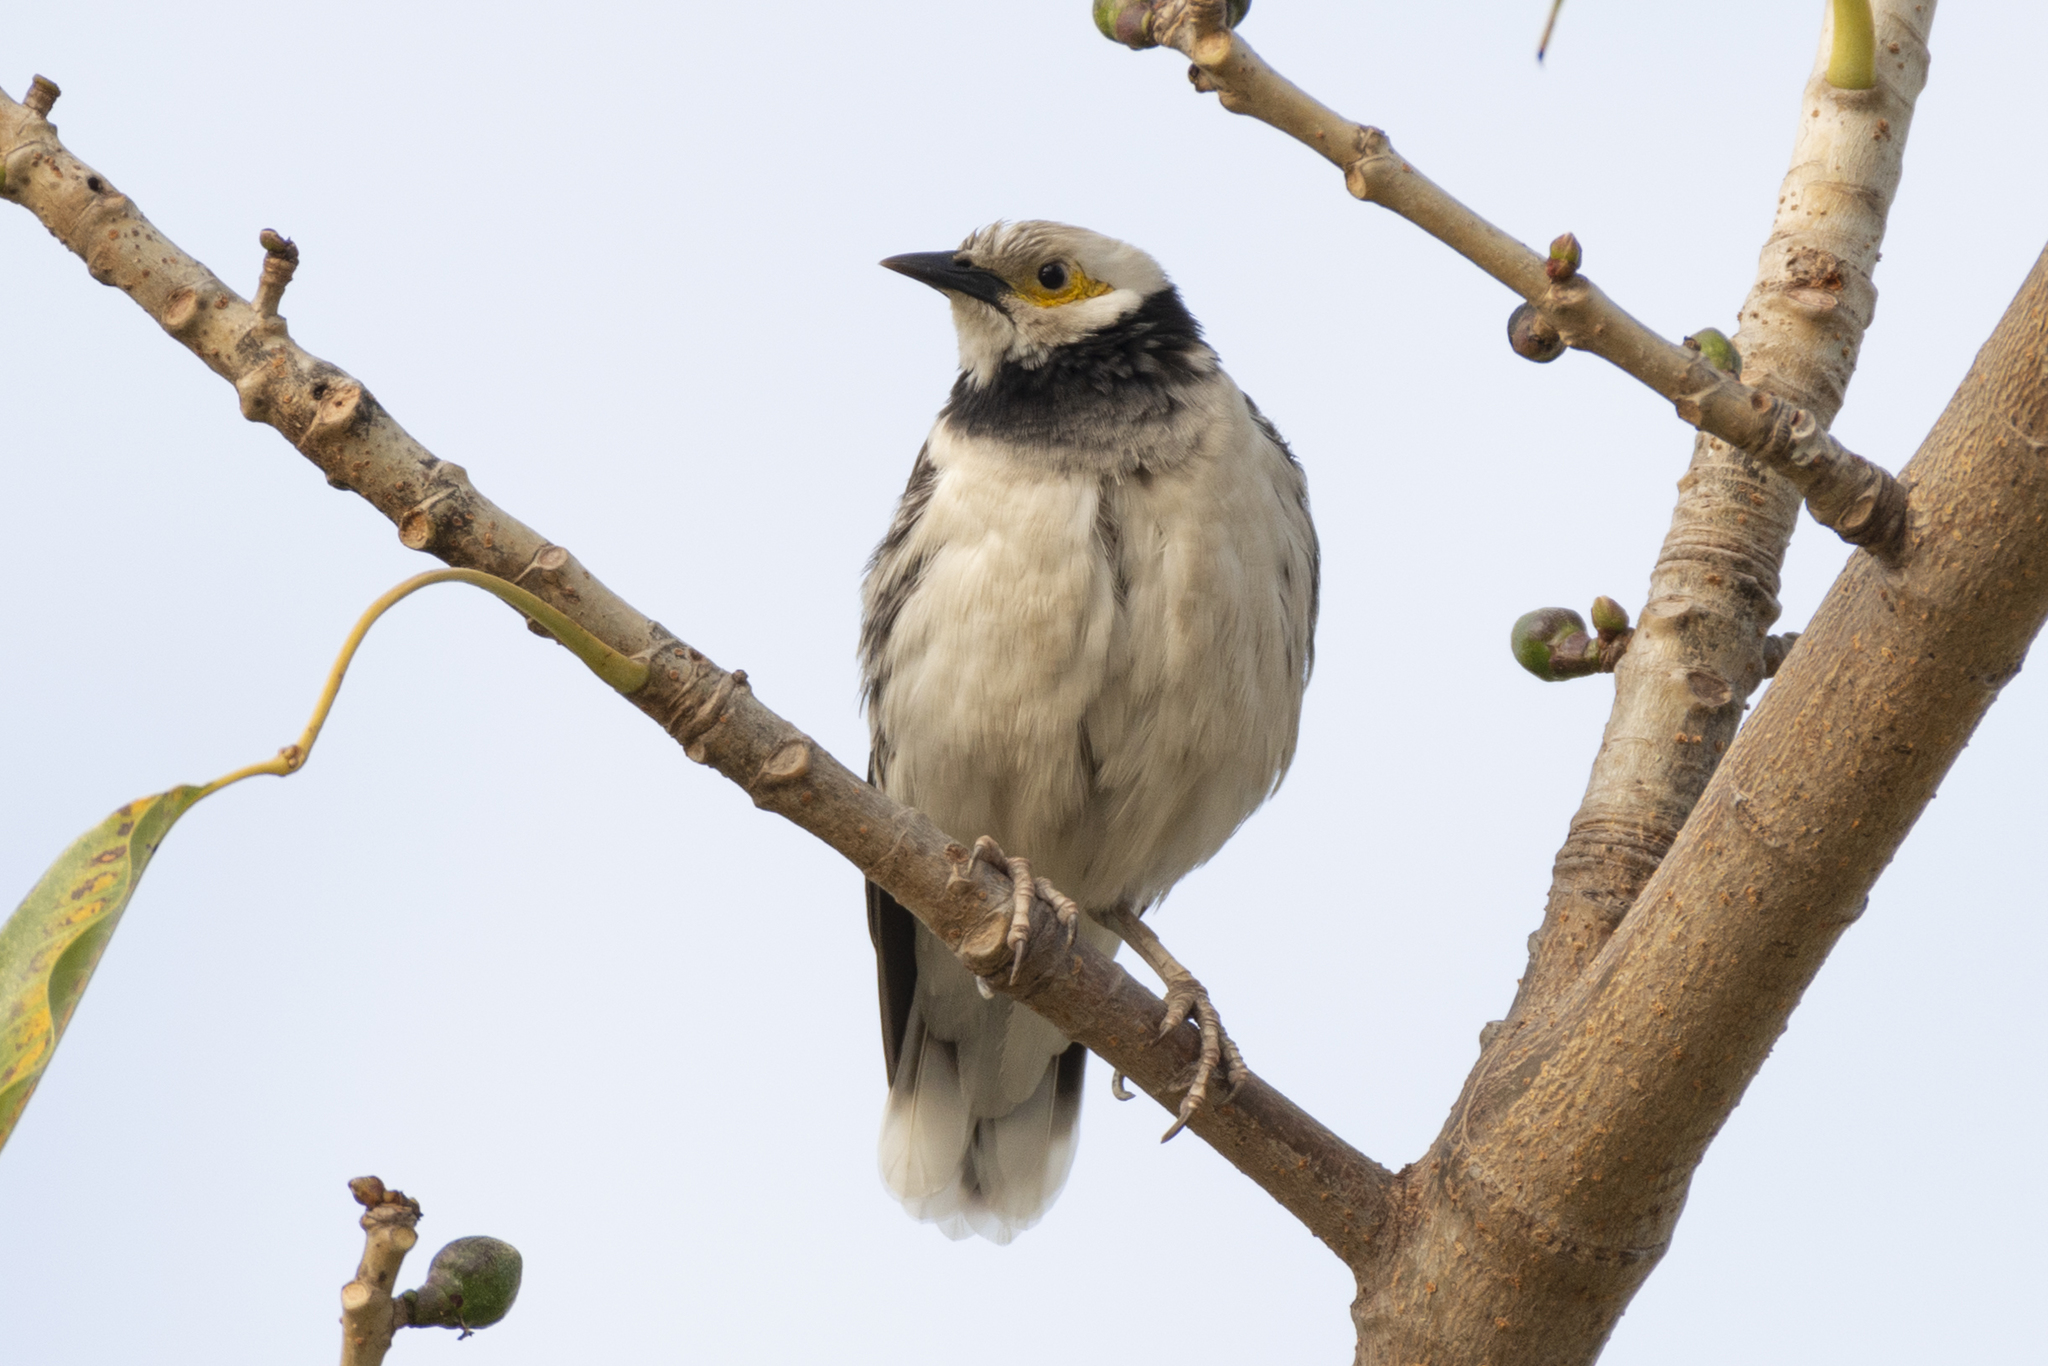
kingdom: Animalia
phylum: Chordata
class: Aves
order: Passeriformes
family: Sturnidae
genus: Gracupica
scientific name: Gracupica nigricollis
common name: Black-collared starling
